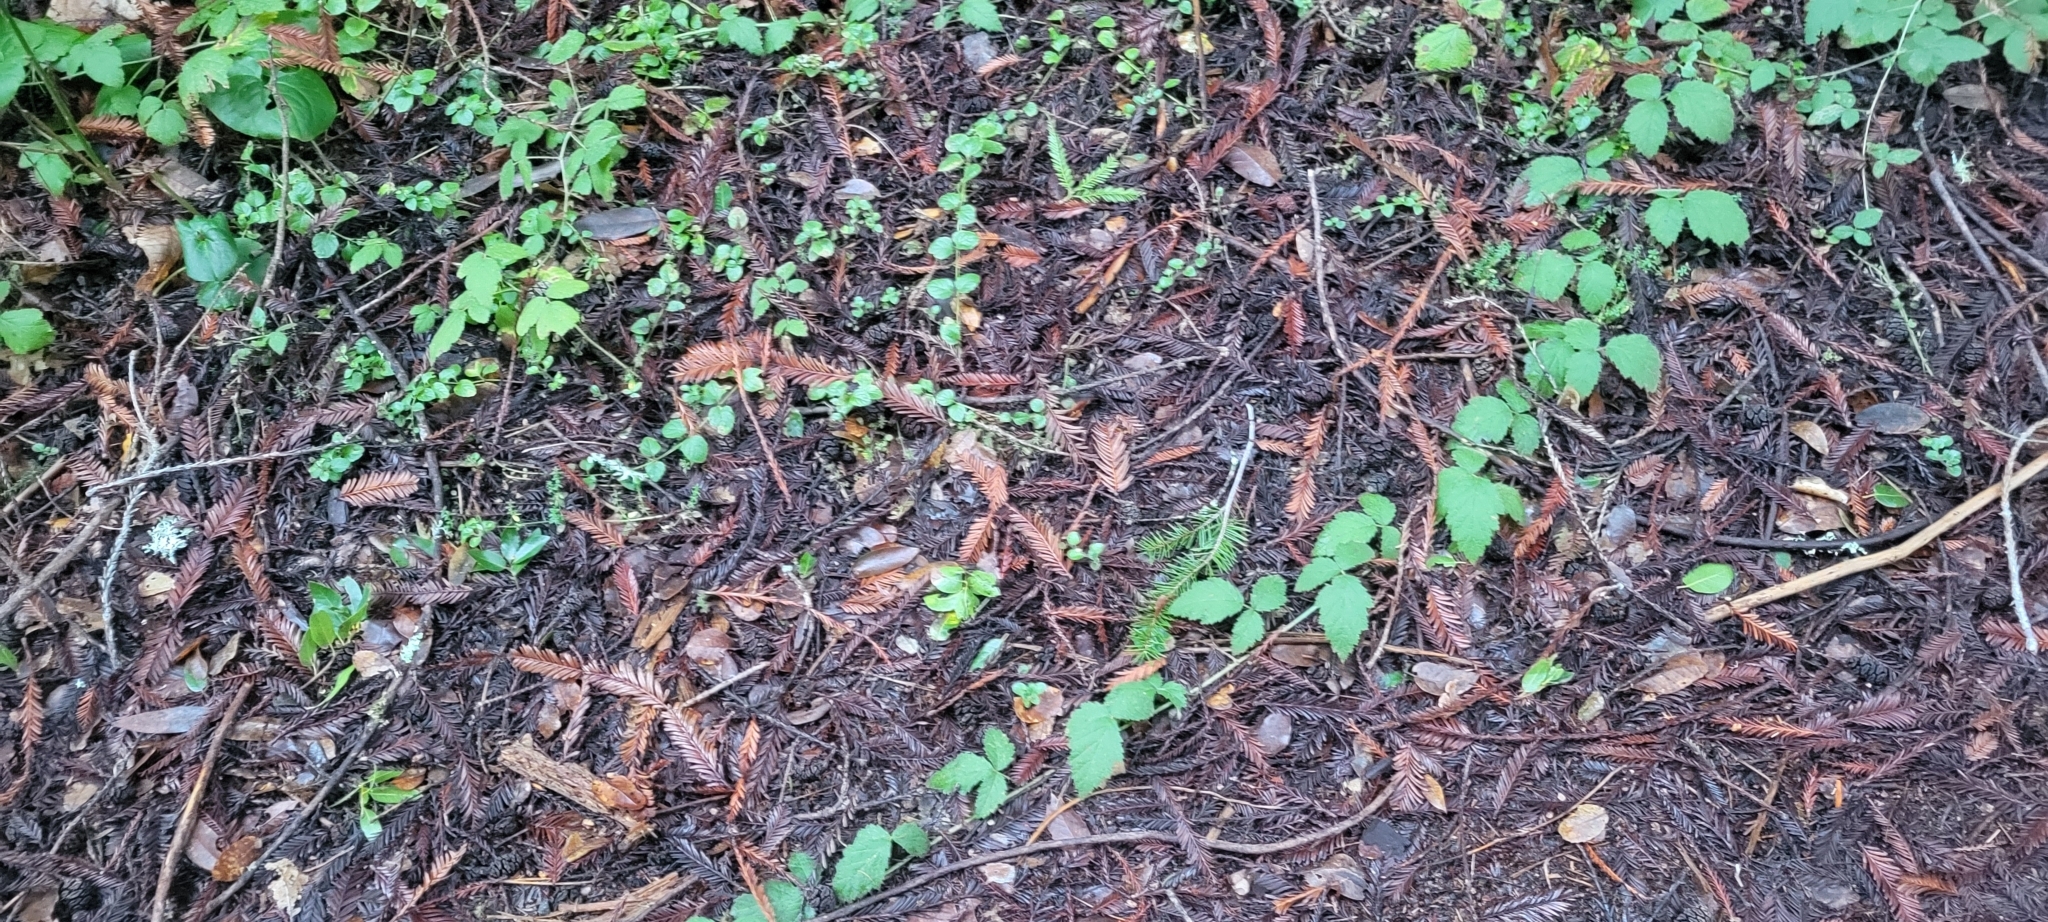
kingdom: Plantae
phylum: Tracheophyta
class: Magnoliopsida
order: Lamiales
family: Lamiaceae
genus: Micromeria
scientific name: Micromeria douglasii
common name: Yerba buena
